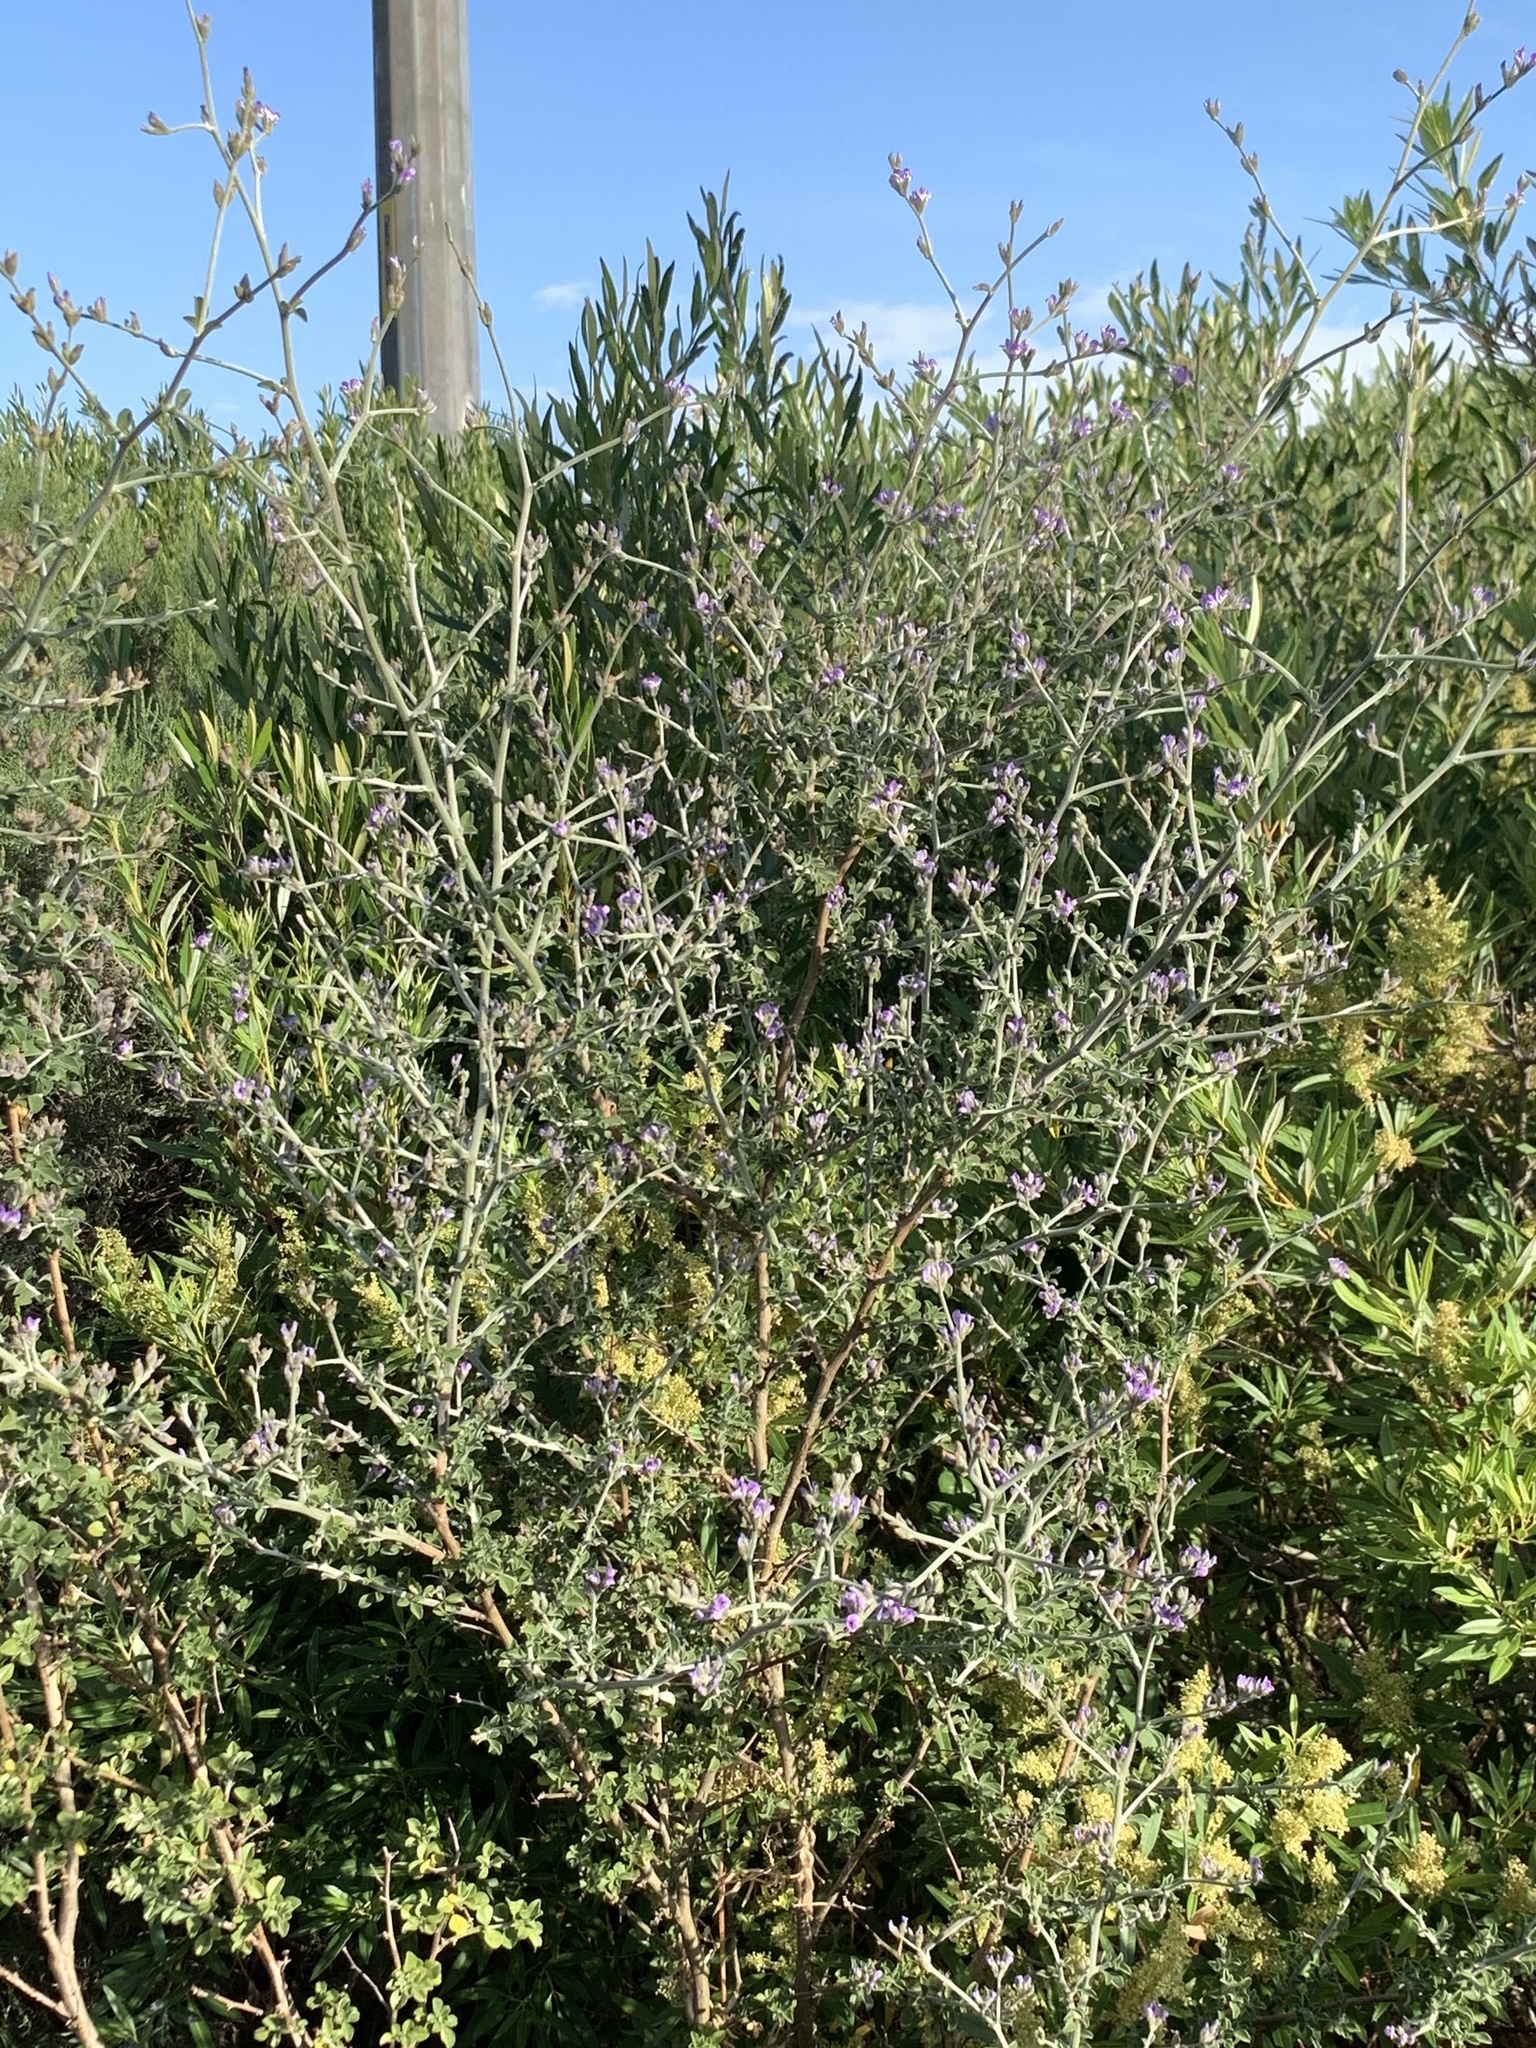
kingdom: Plantae
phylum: Tracheophyta
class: Magnoliopsida
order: Fabales
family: Fabaceae
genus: Psoralea
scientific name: Psoralea hirta
